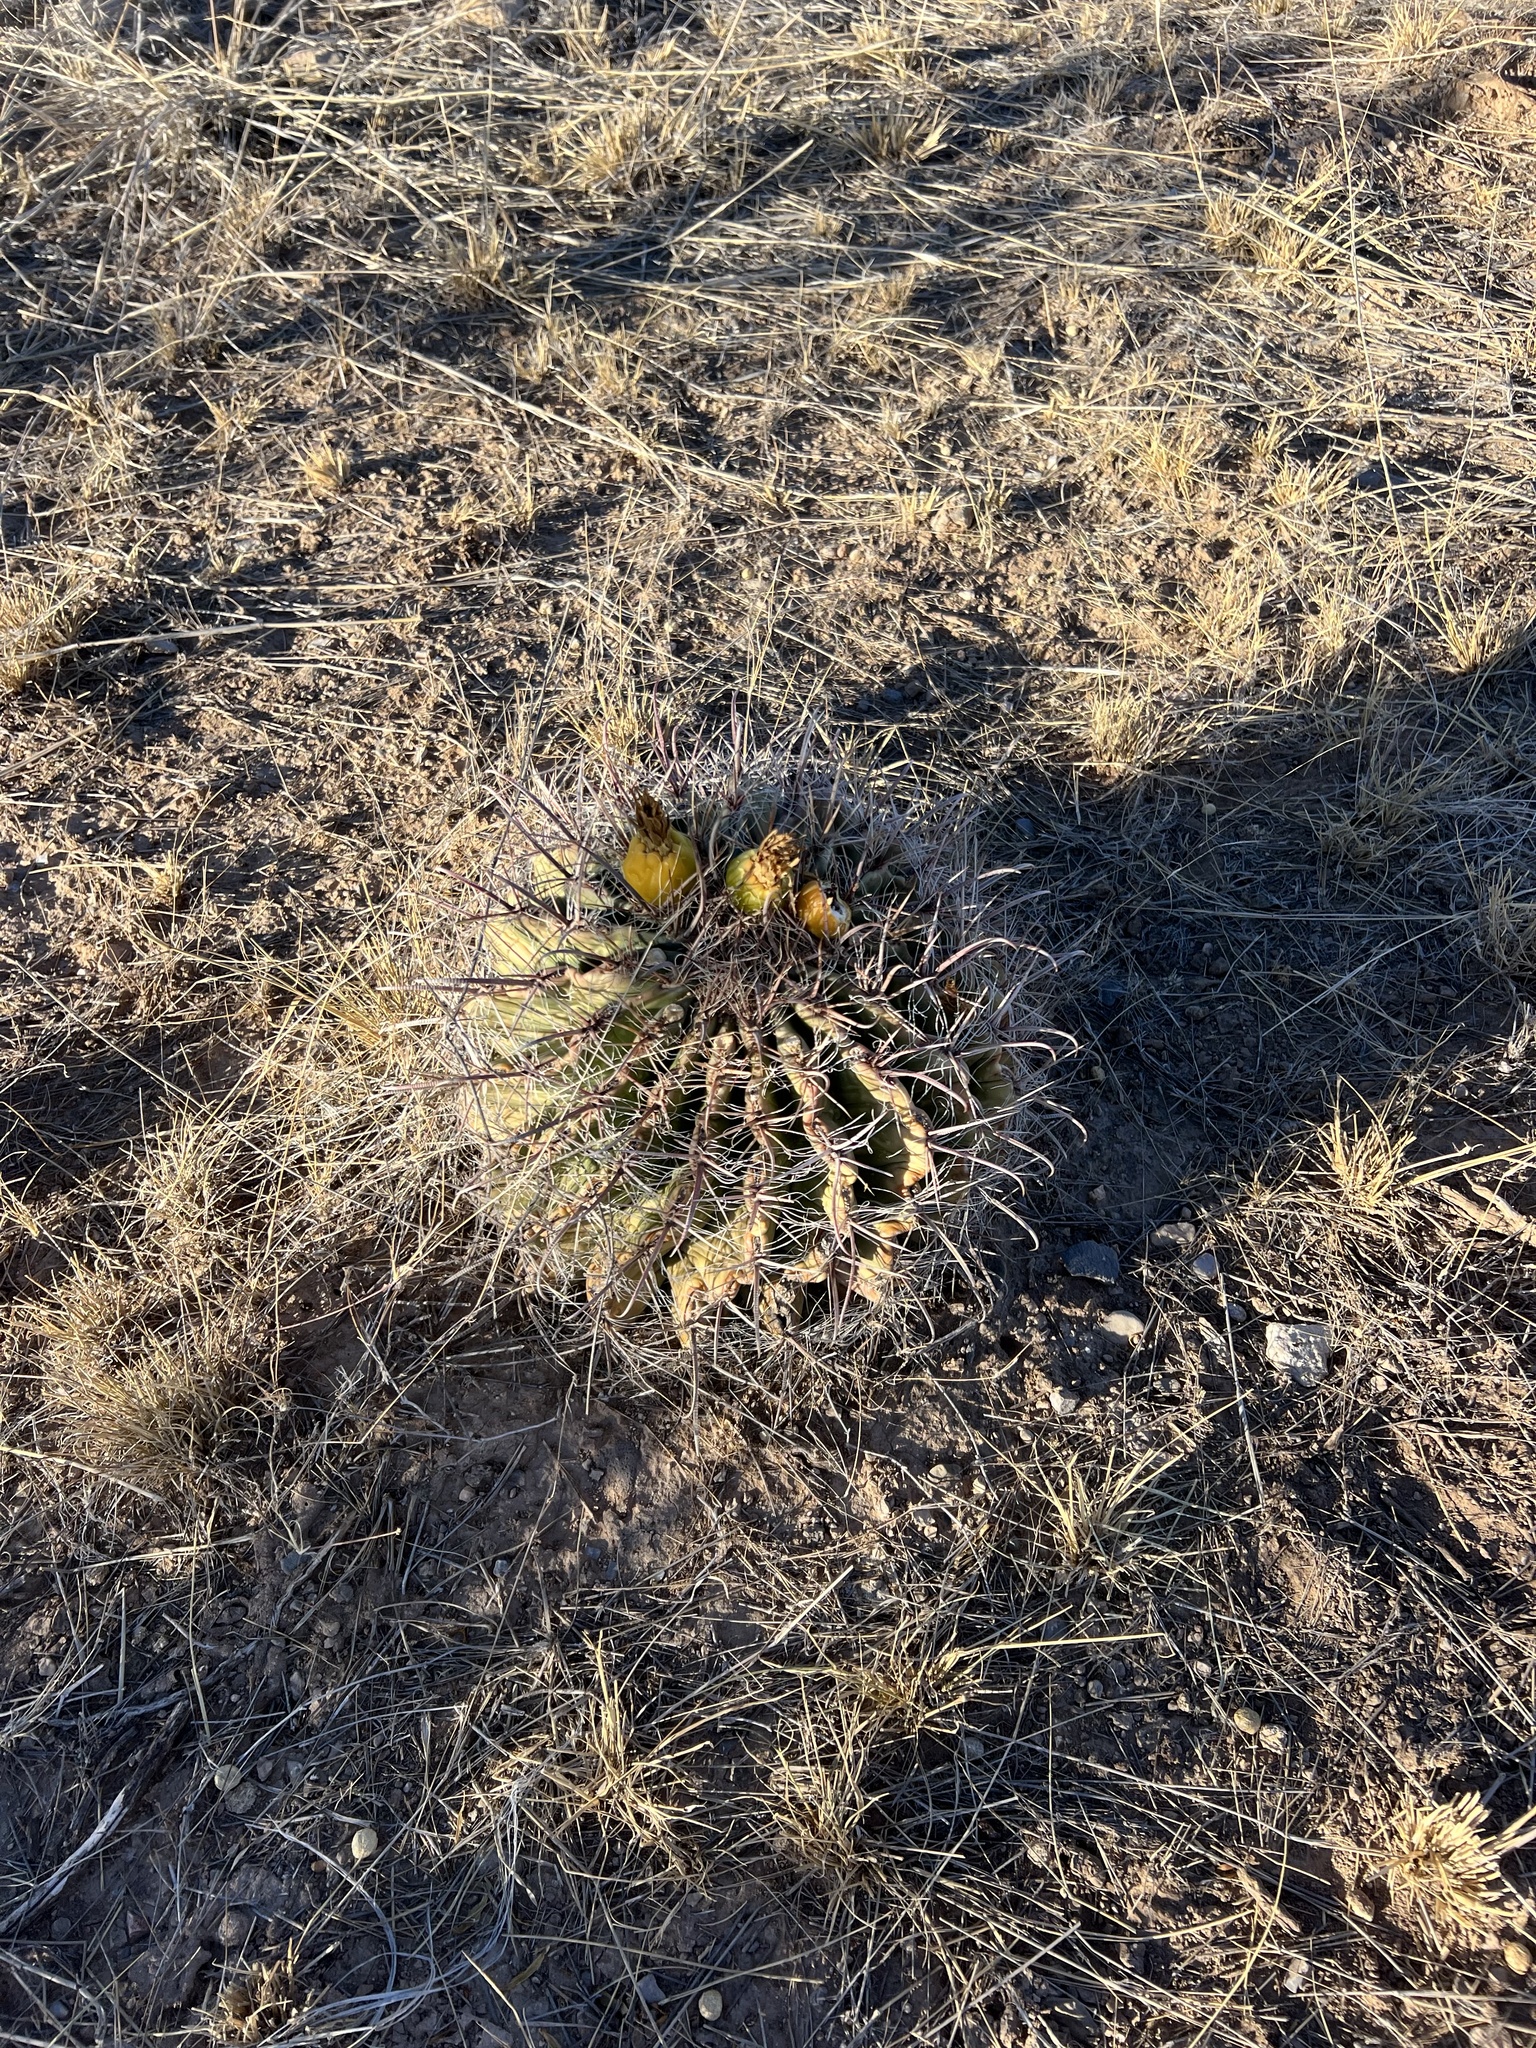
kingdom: Plantae
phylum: Tracheophyta
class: Magnoliopsida
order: Caryophyllales
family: Cactaceae
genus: Ferocactus
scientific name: Ferocactus wislizeni
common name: Candy barrel cactus
